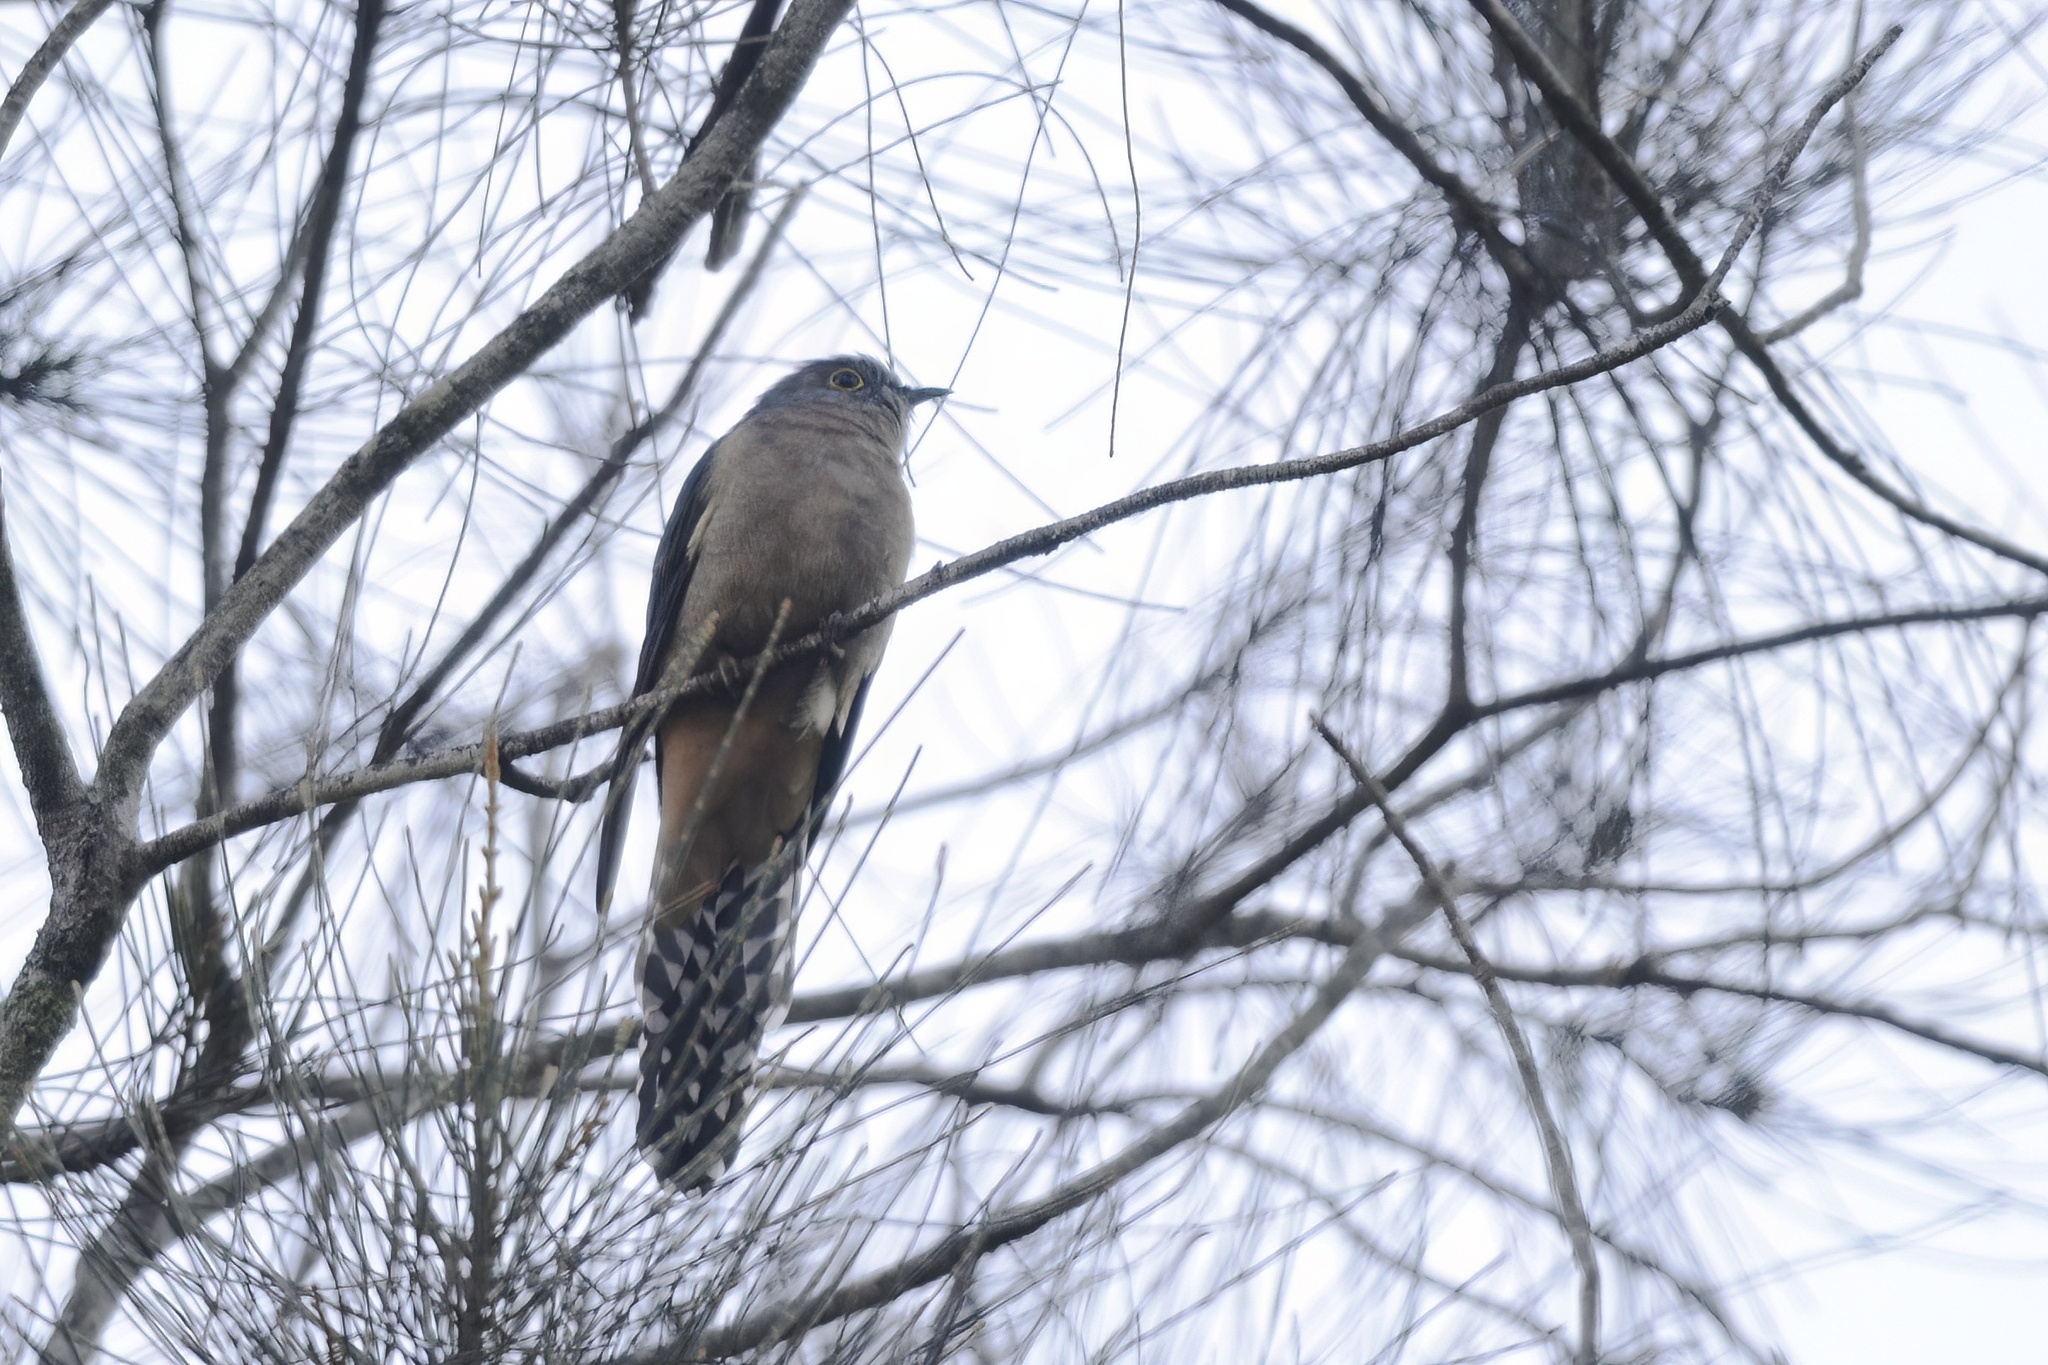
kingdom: Animalia
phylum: Chordata
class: Aves
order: Cuculiformes
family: Cuculidae
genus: Cacomantis
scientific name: Cacomantis flabelliformis
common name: Fan-tailed cuckoo
